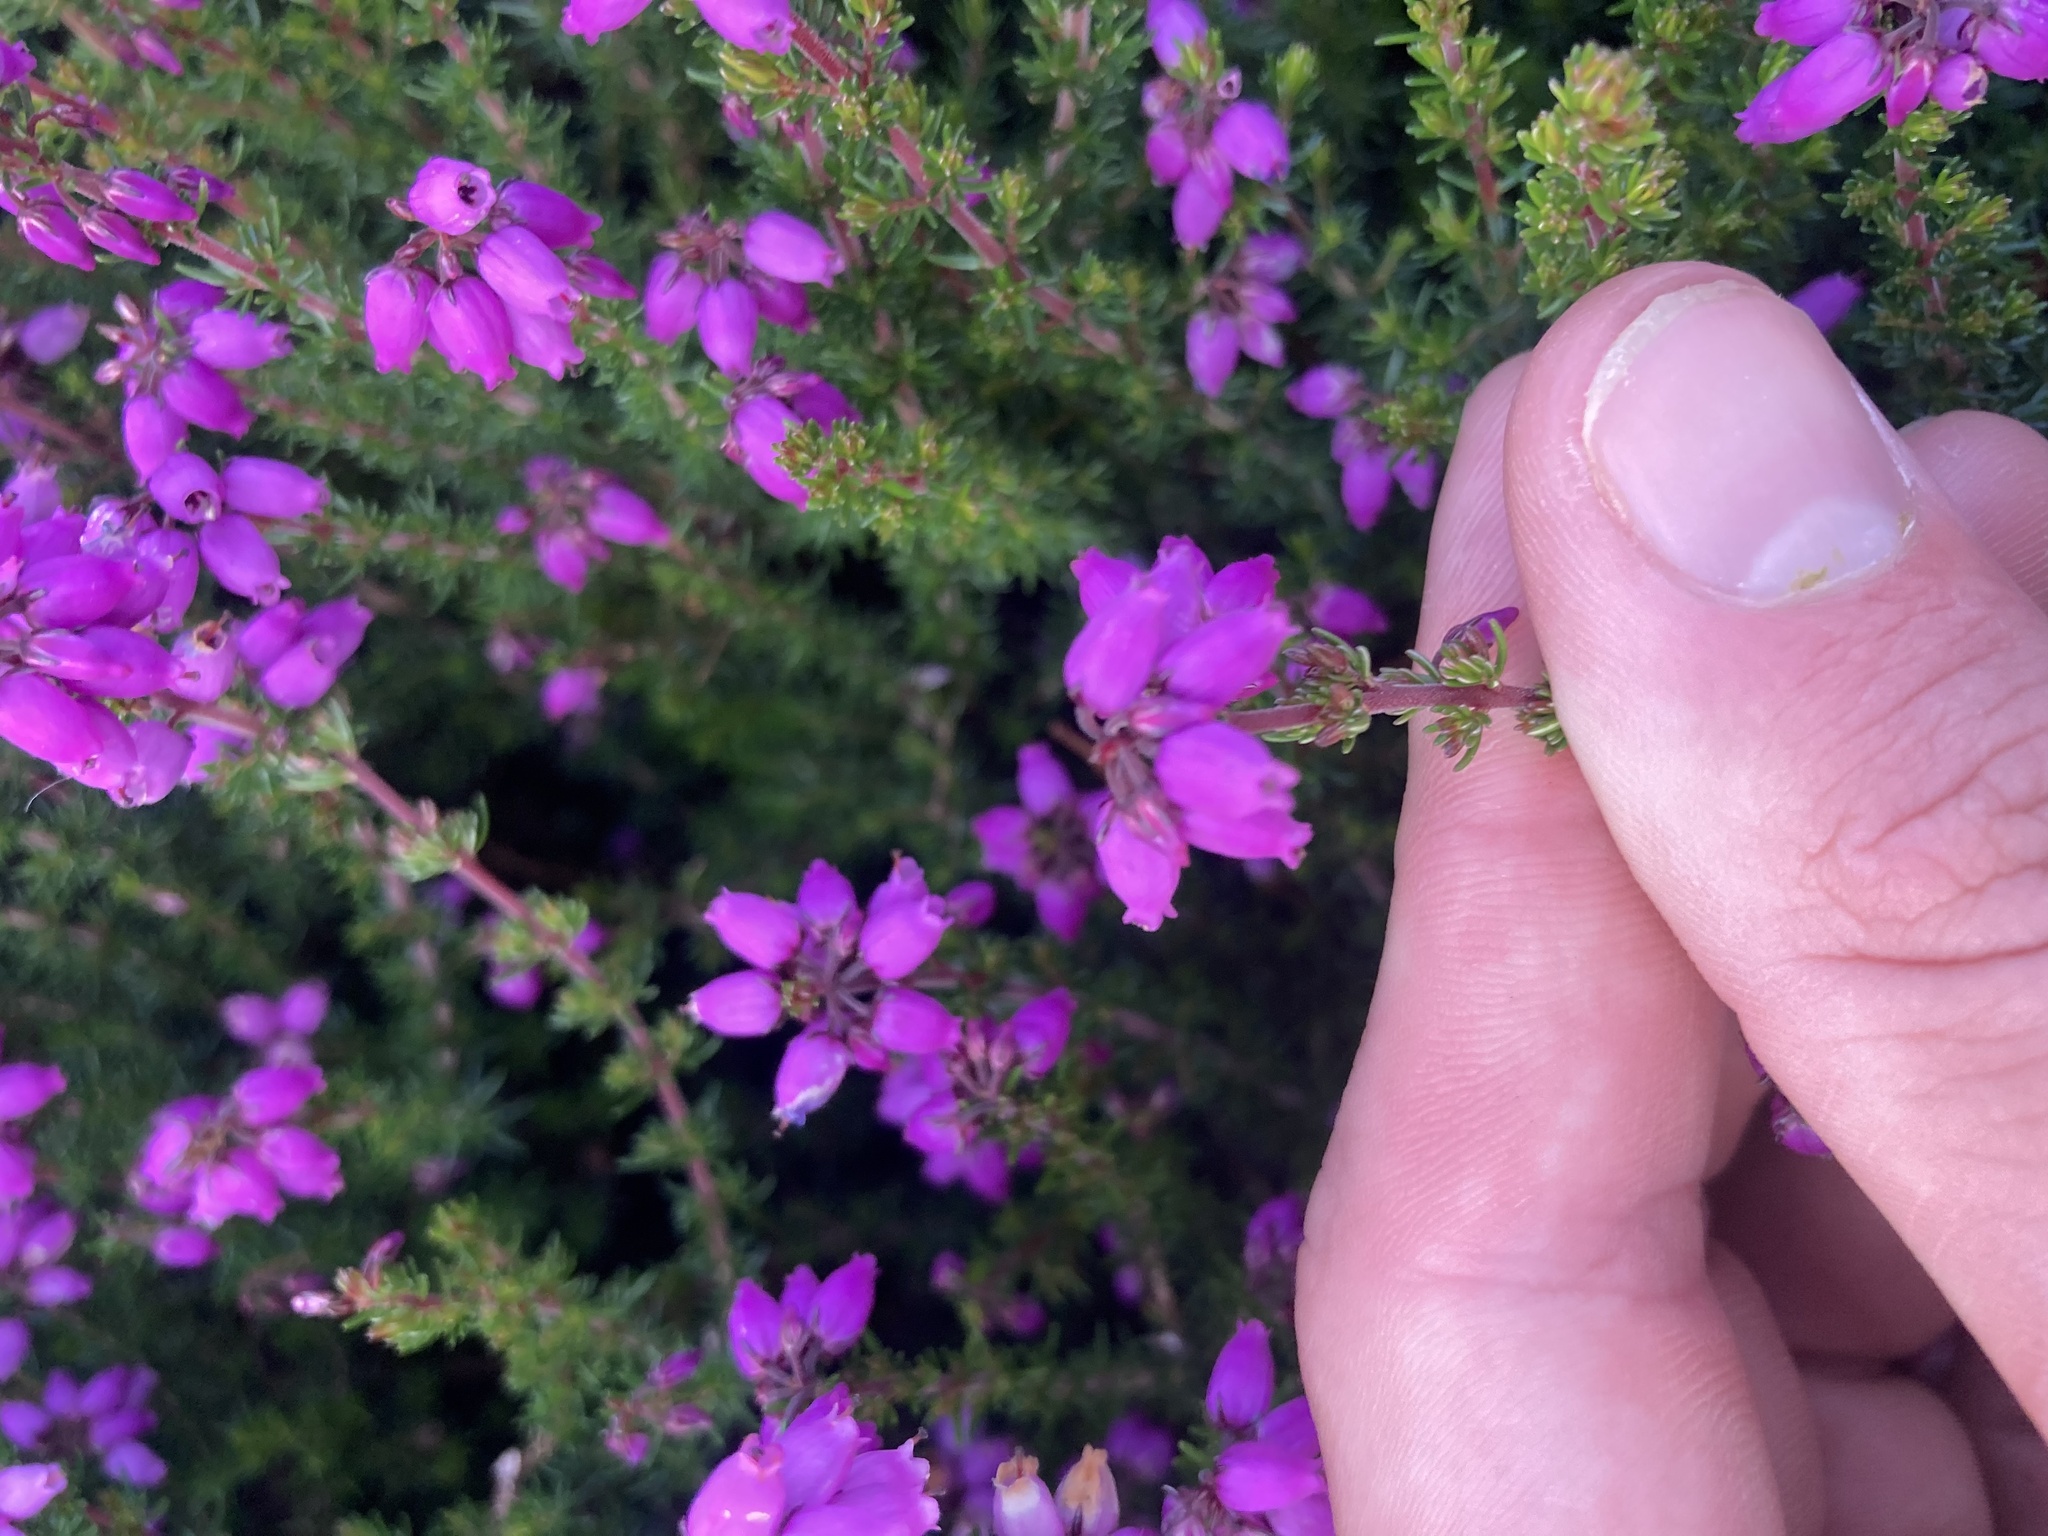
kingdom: Plantae
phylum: Tracheophyta
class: Magnoliopsida
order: Ericales
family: Ericaceae
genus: Erica
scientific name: Erica cinerea
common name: Bell heather
